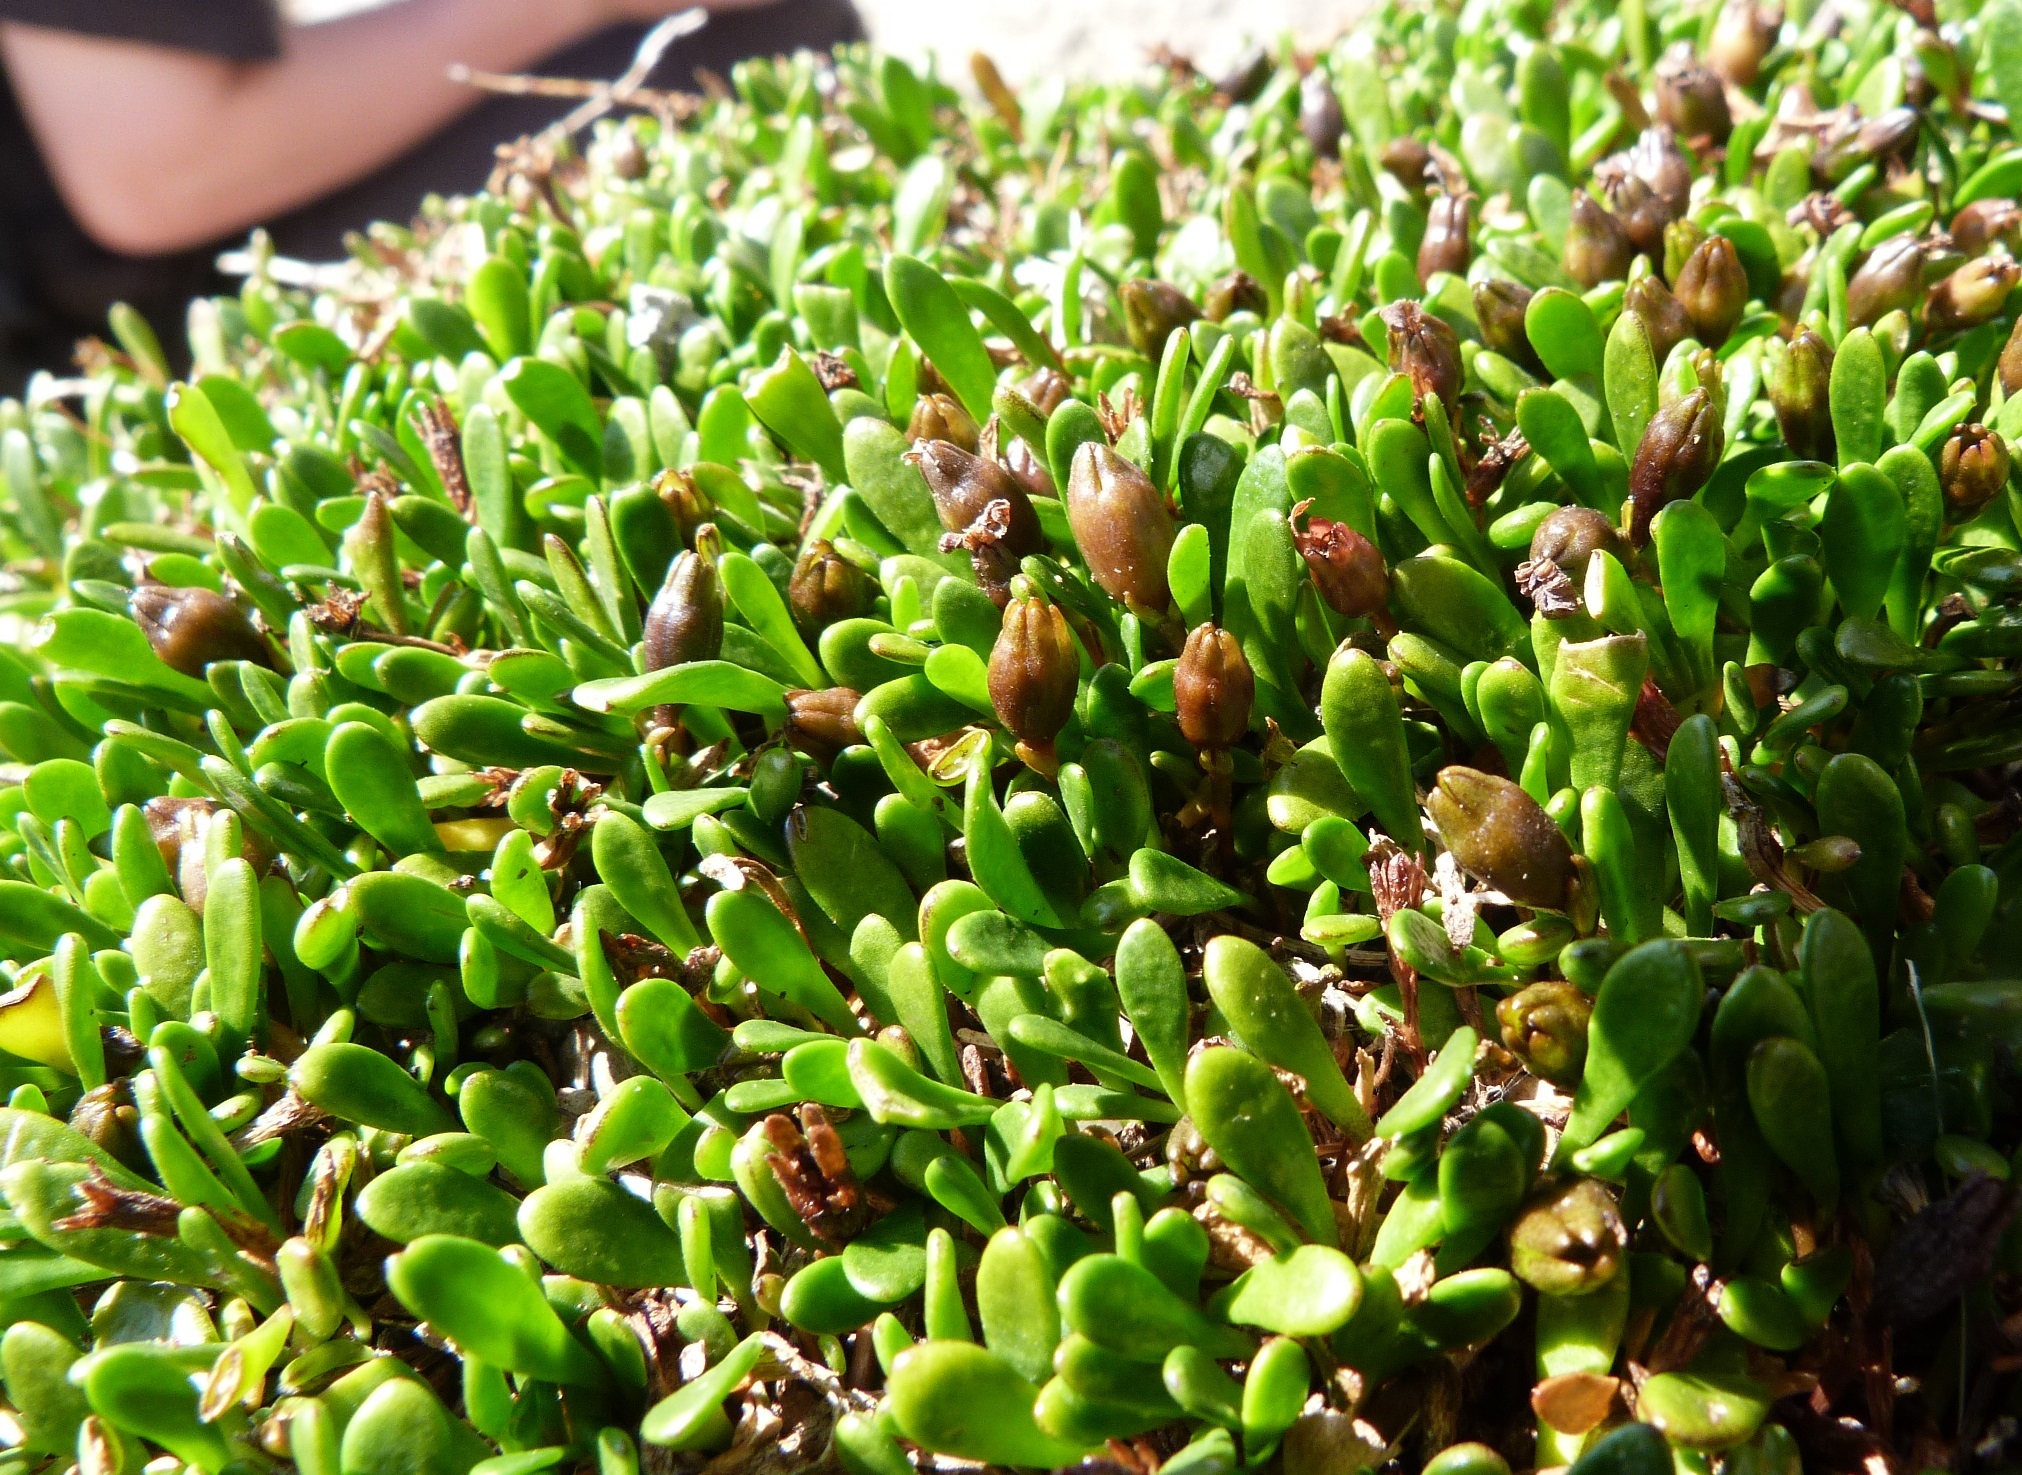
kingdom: Plantae
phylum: Tracheophyta
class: Magnoliopsida
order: Asterales
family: Goodeniaceae
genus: Goodenia
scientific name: Goodenia radicans
